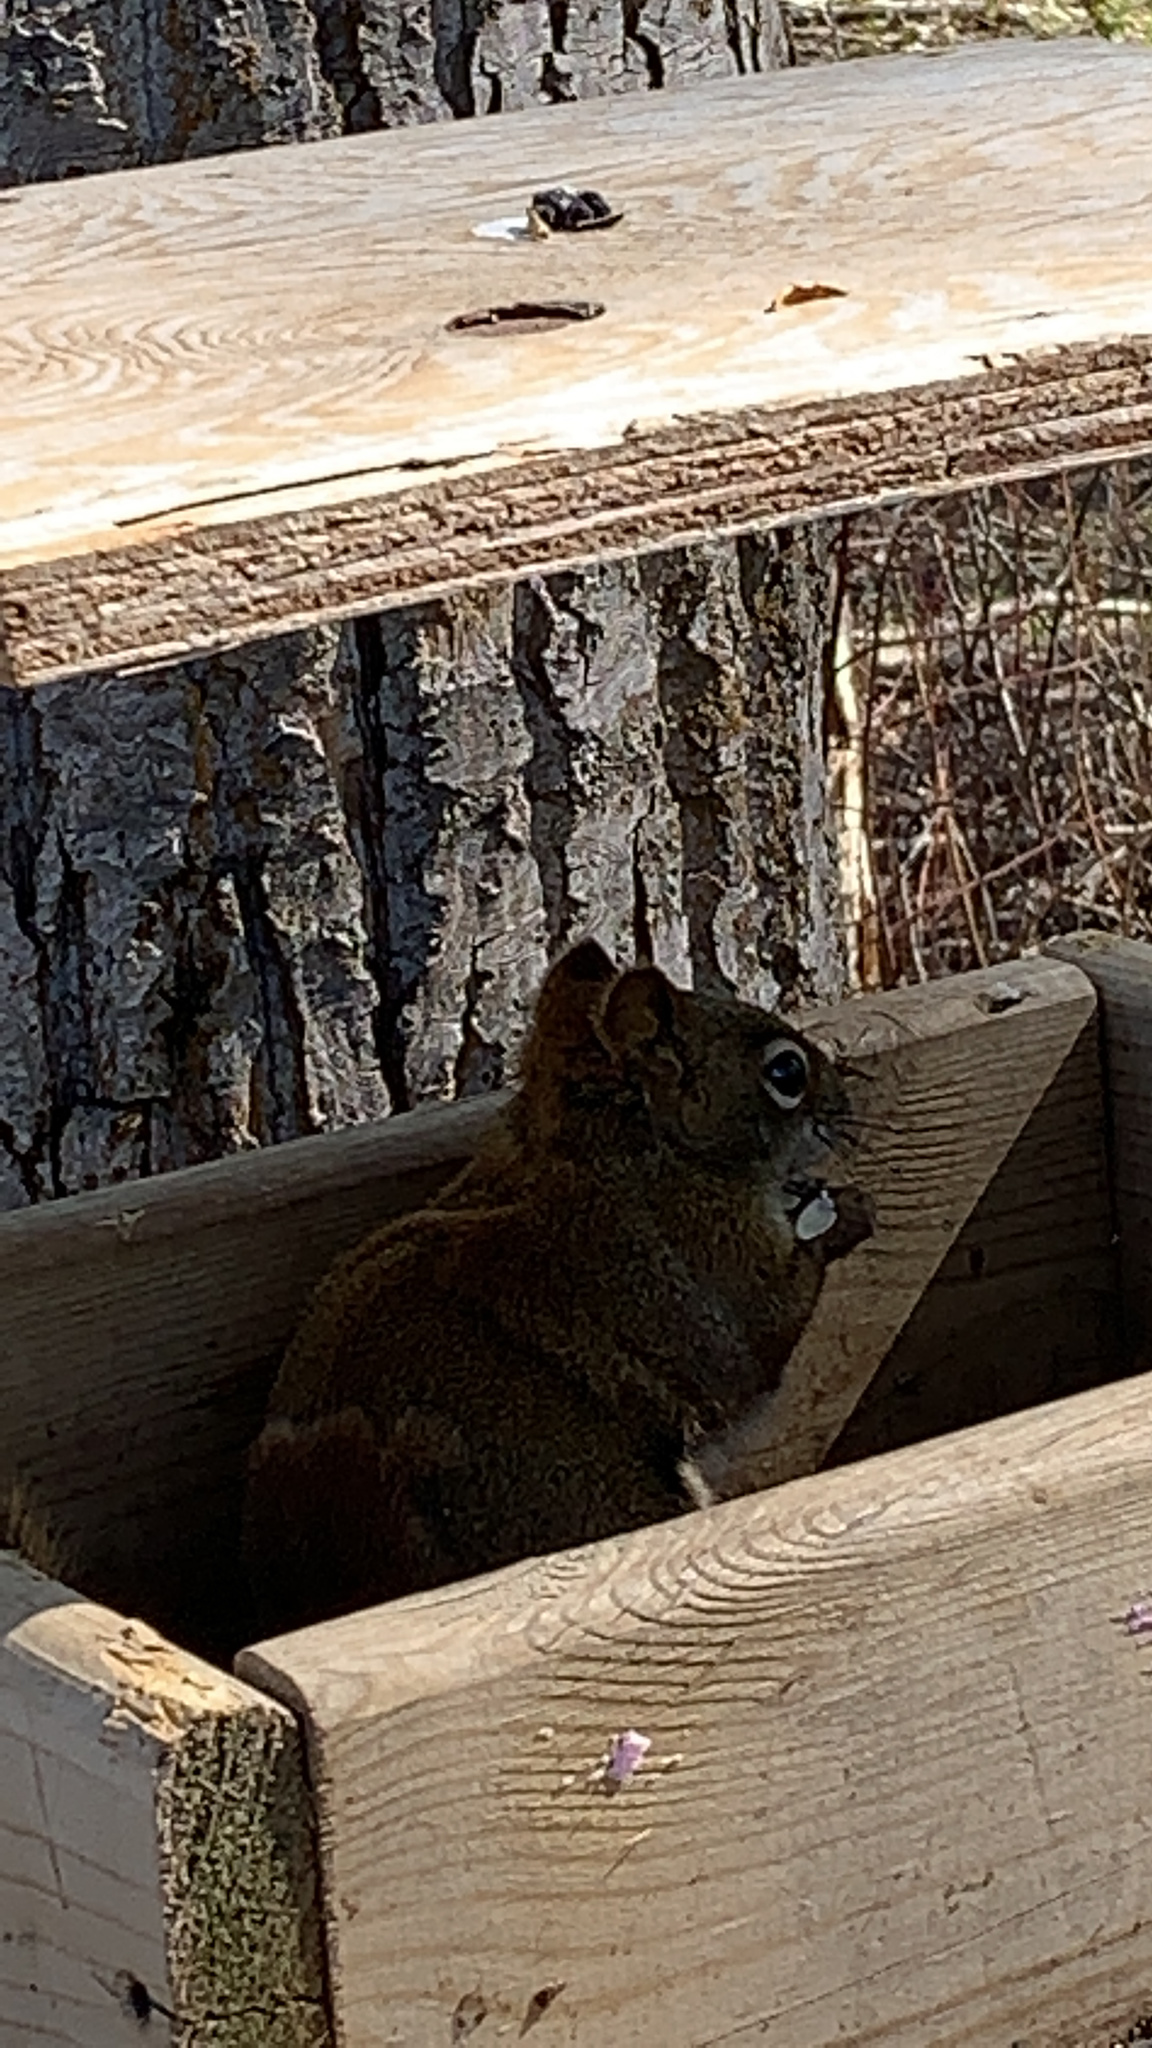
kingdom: Animalia
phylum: Chordata
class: Mammalia
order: Rodentia
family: Sciuridae
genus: Tamiasciurus
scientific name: Tamiasciurus hudsonicus
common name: Red squirrel
